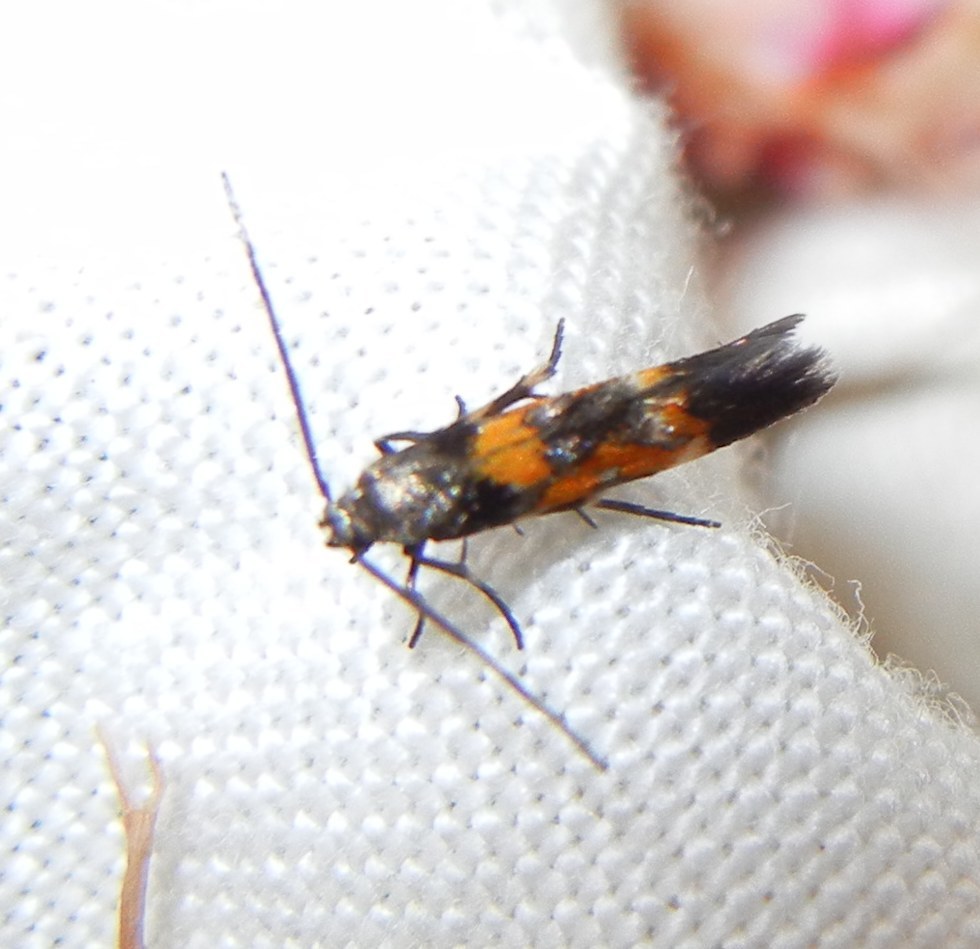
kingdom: Animalia
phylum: Arthropoda
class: Insecta
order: Lepidoptera
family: Momphidae
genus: Mompha
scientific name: Mompha locupletella
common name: Red cosmet
